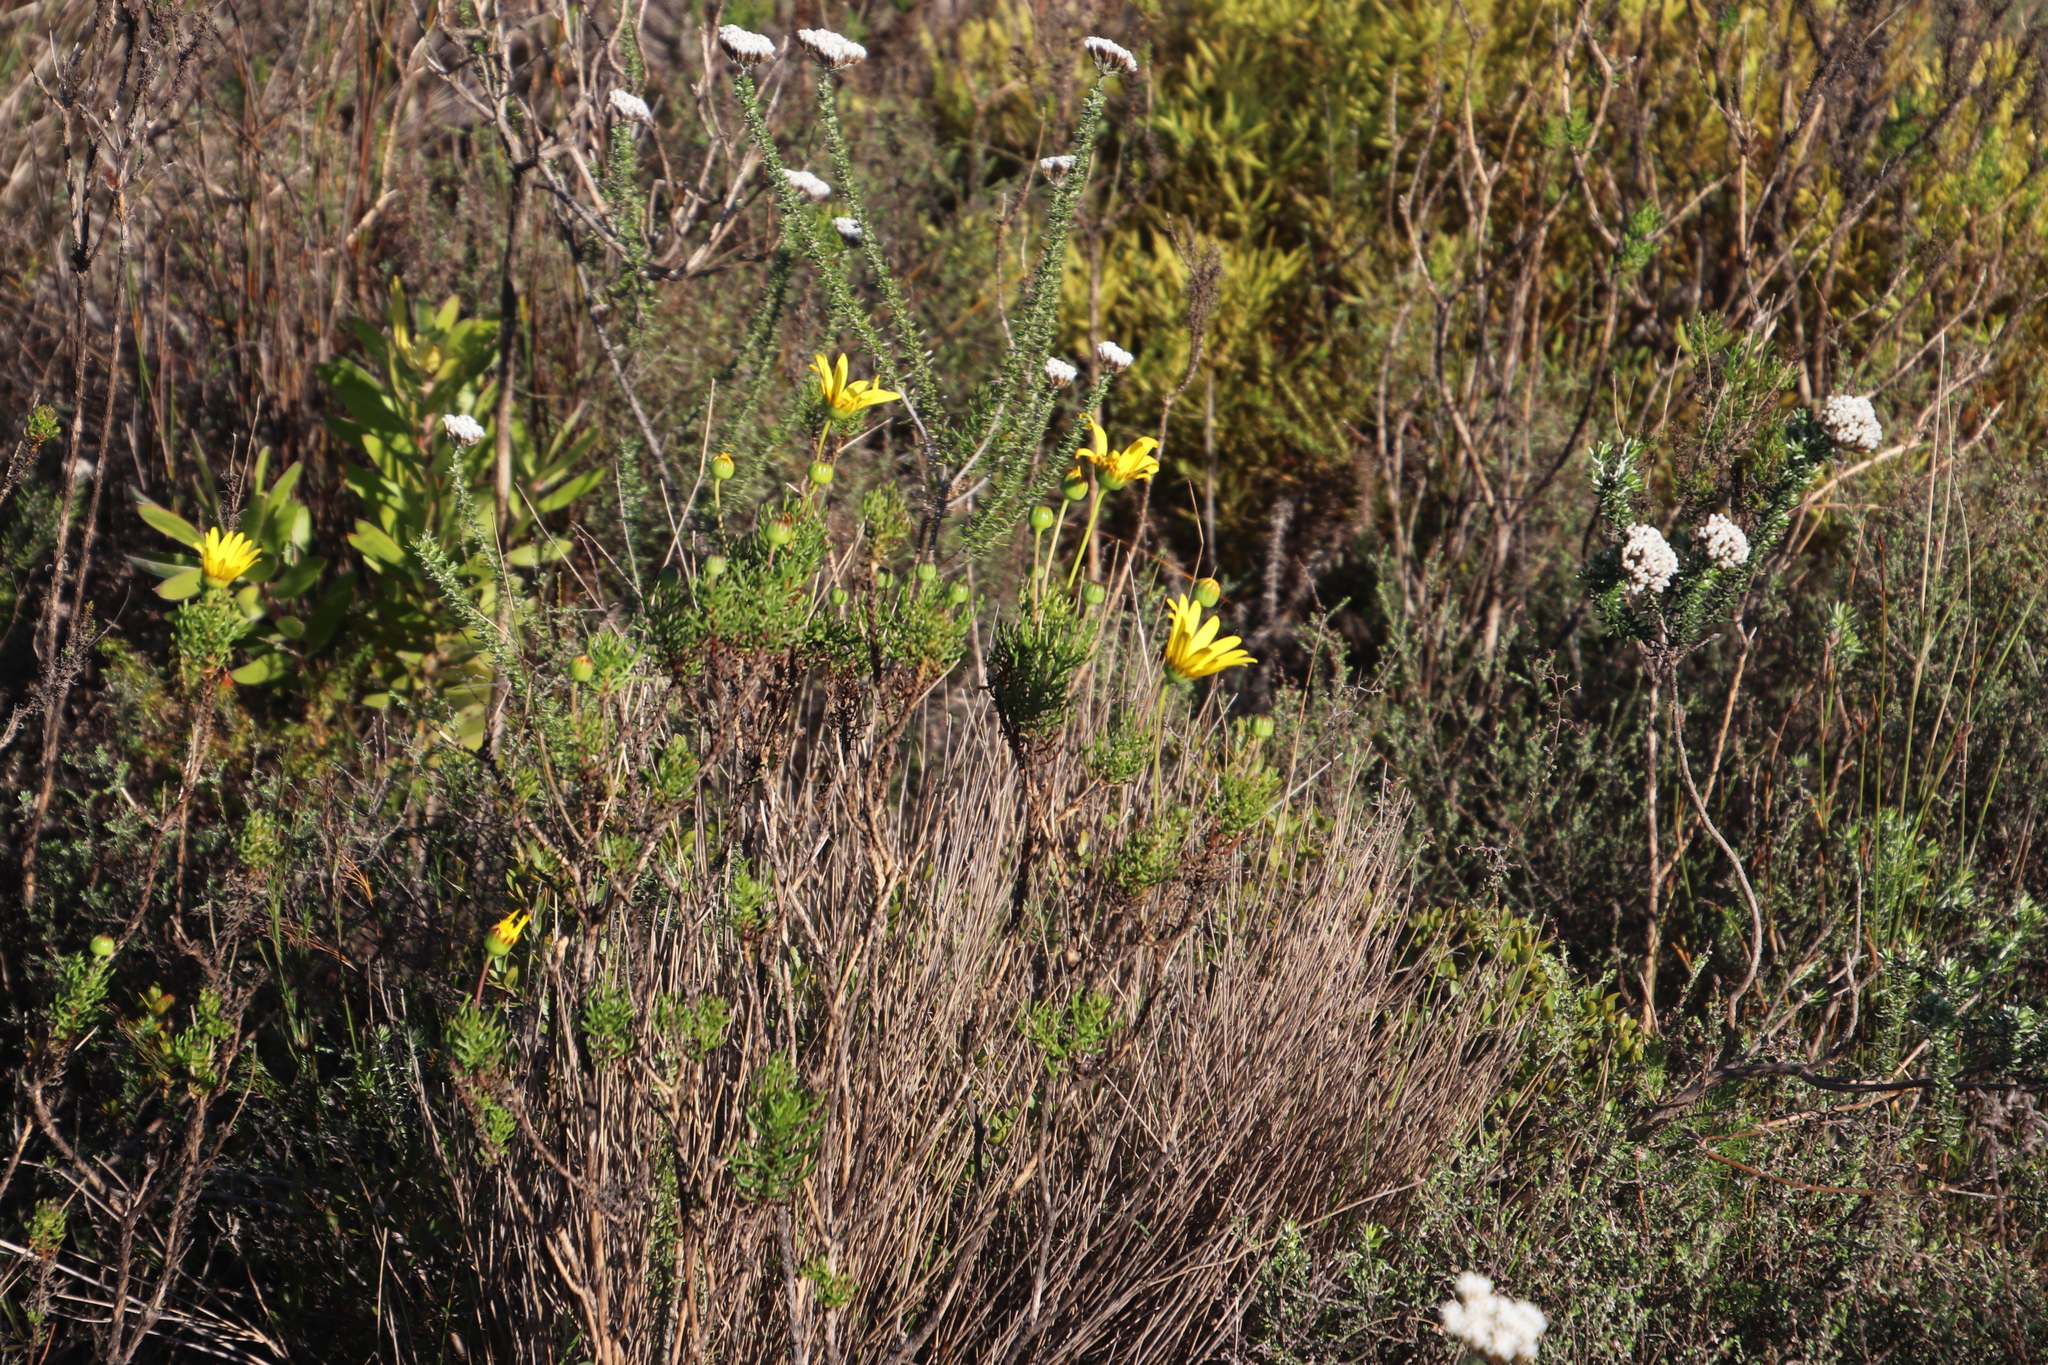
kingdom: Plantae
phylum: Tracheophyta
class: Magnoliopsida
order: Asterales
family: Asteraceae
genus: Euryops
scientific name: Euryops abrotanifolius
